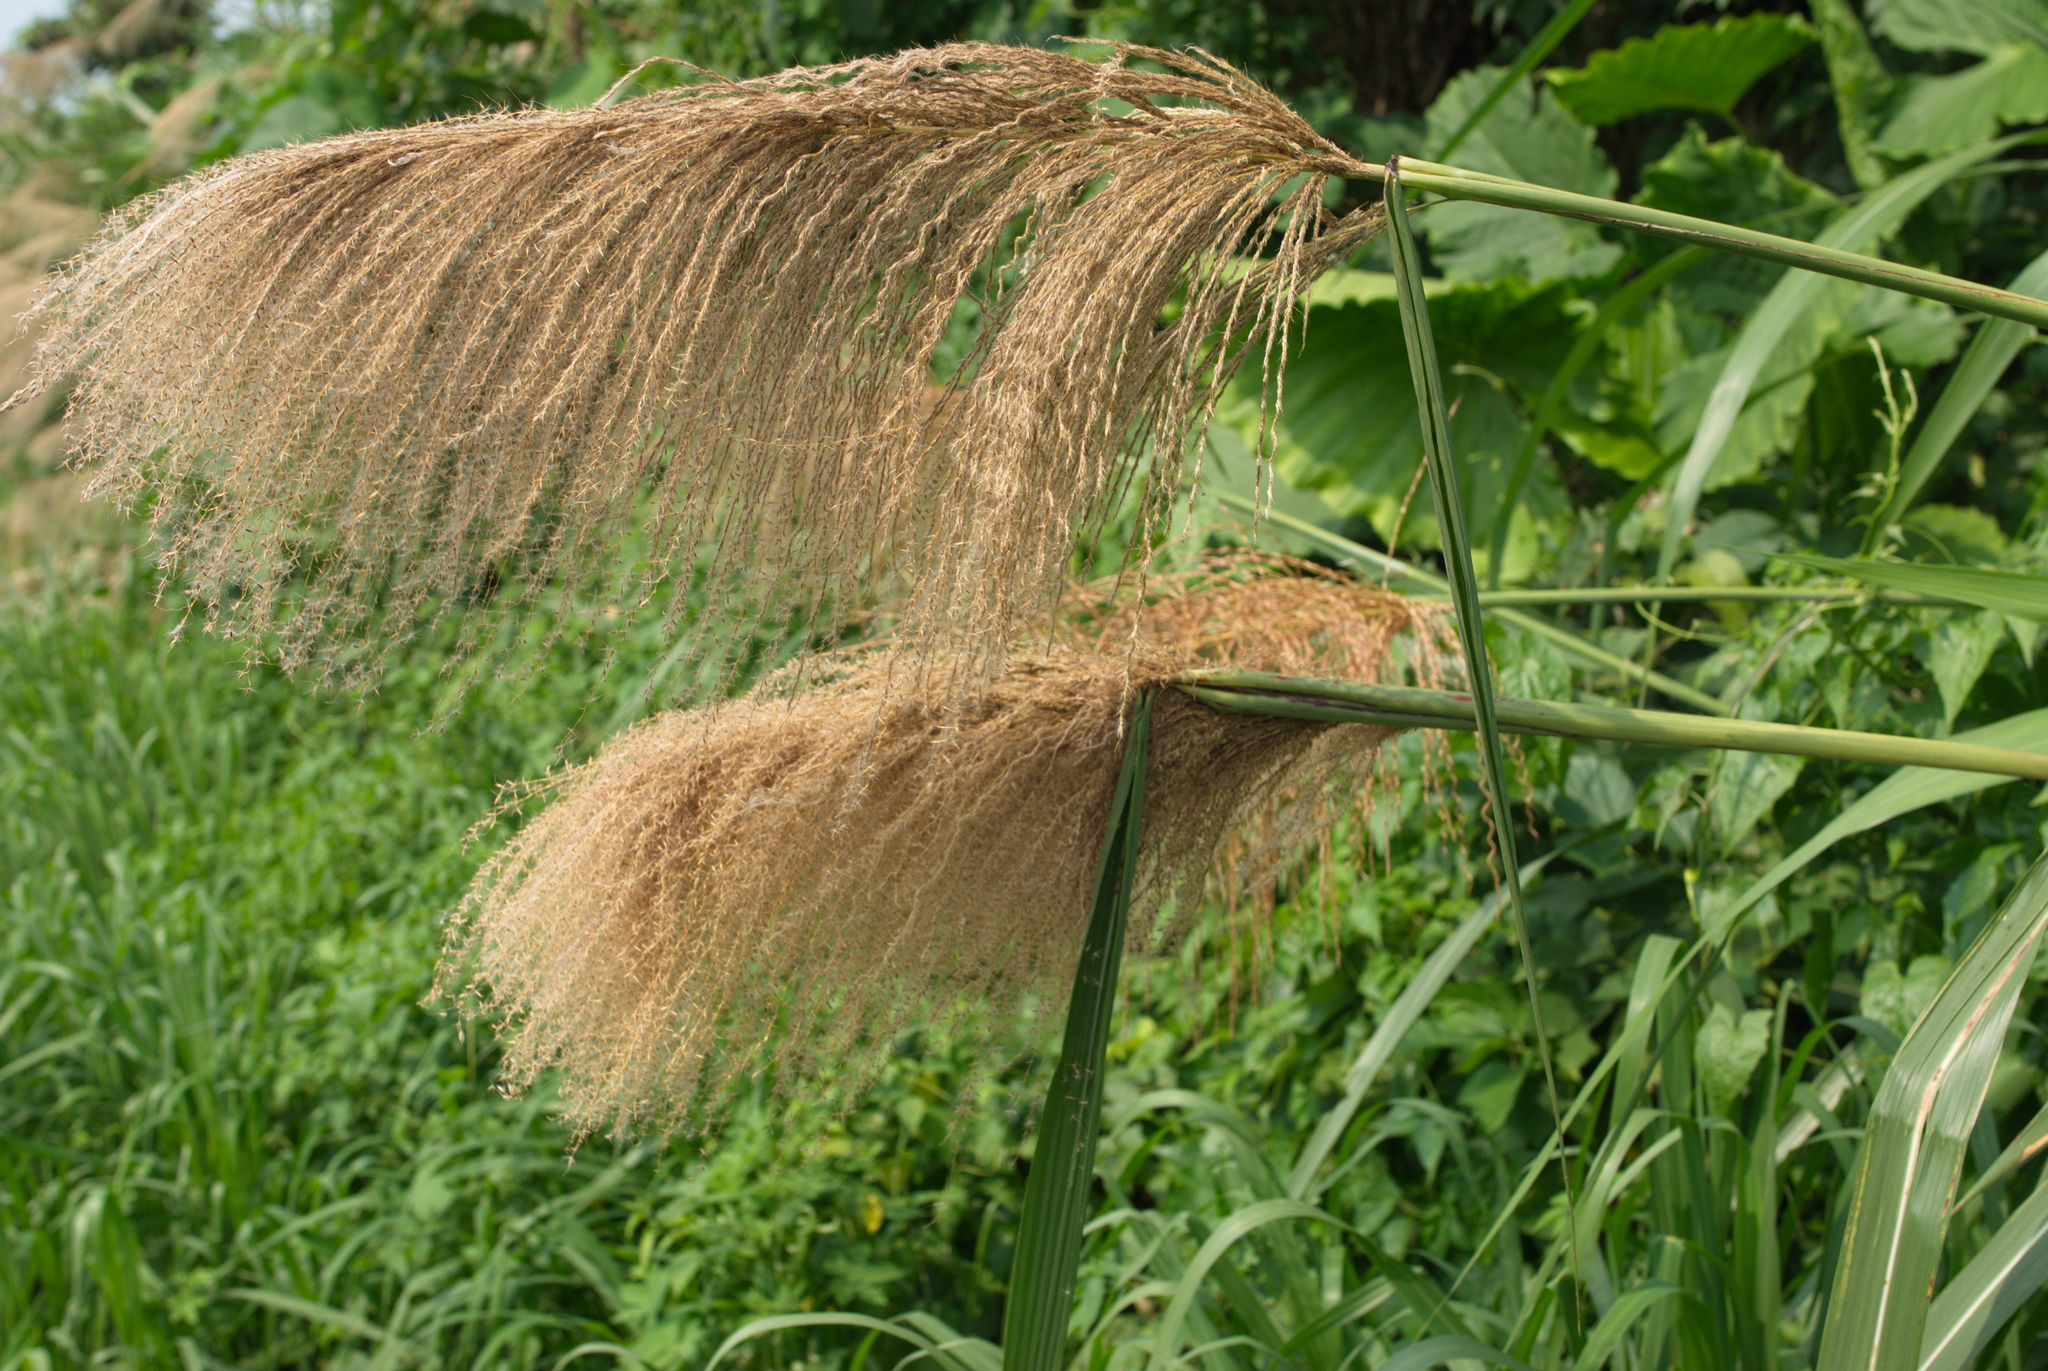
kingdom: Plantae
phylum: Tracheophyta
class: Liliopsida
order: Poales
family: Poaceae
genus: Miscanthus
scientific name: Miscanthus floridulus
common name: Pacific island silvergrass
